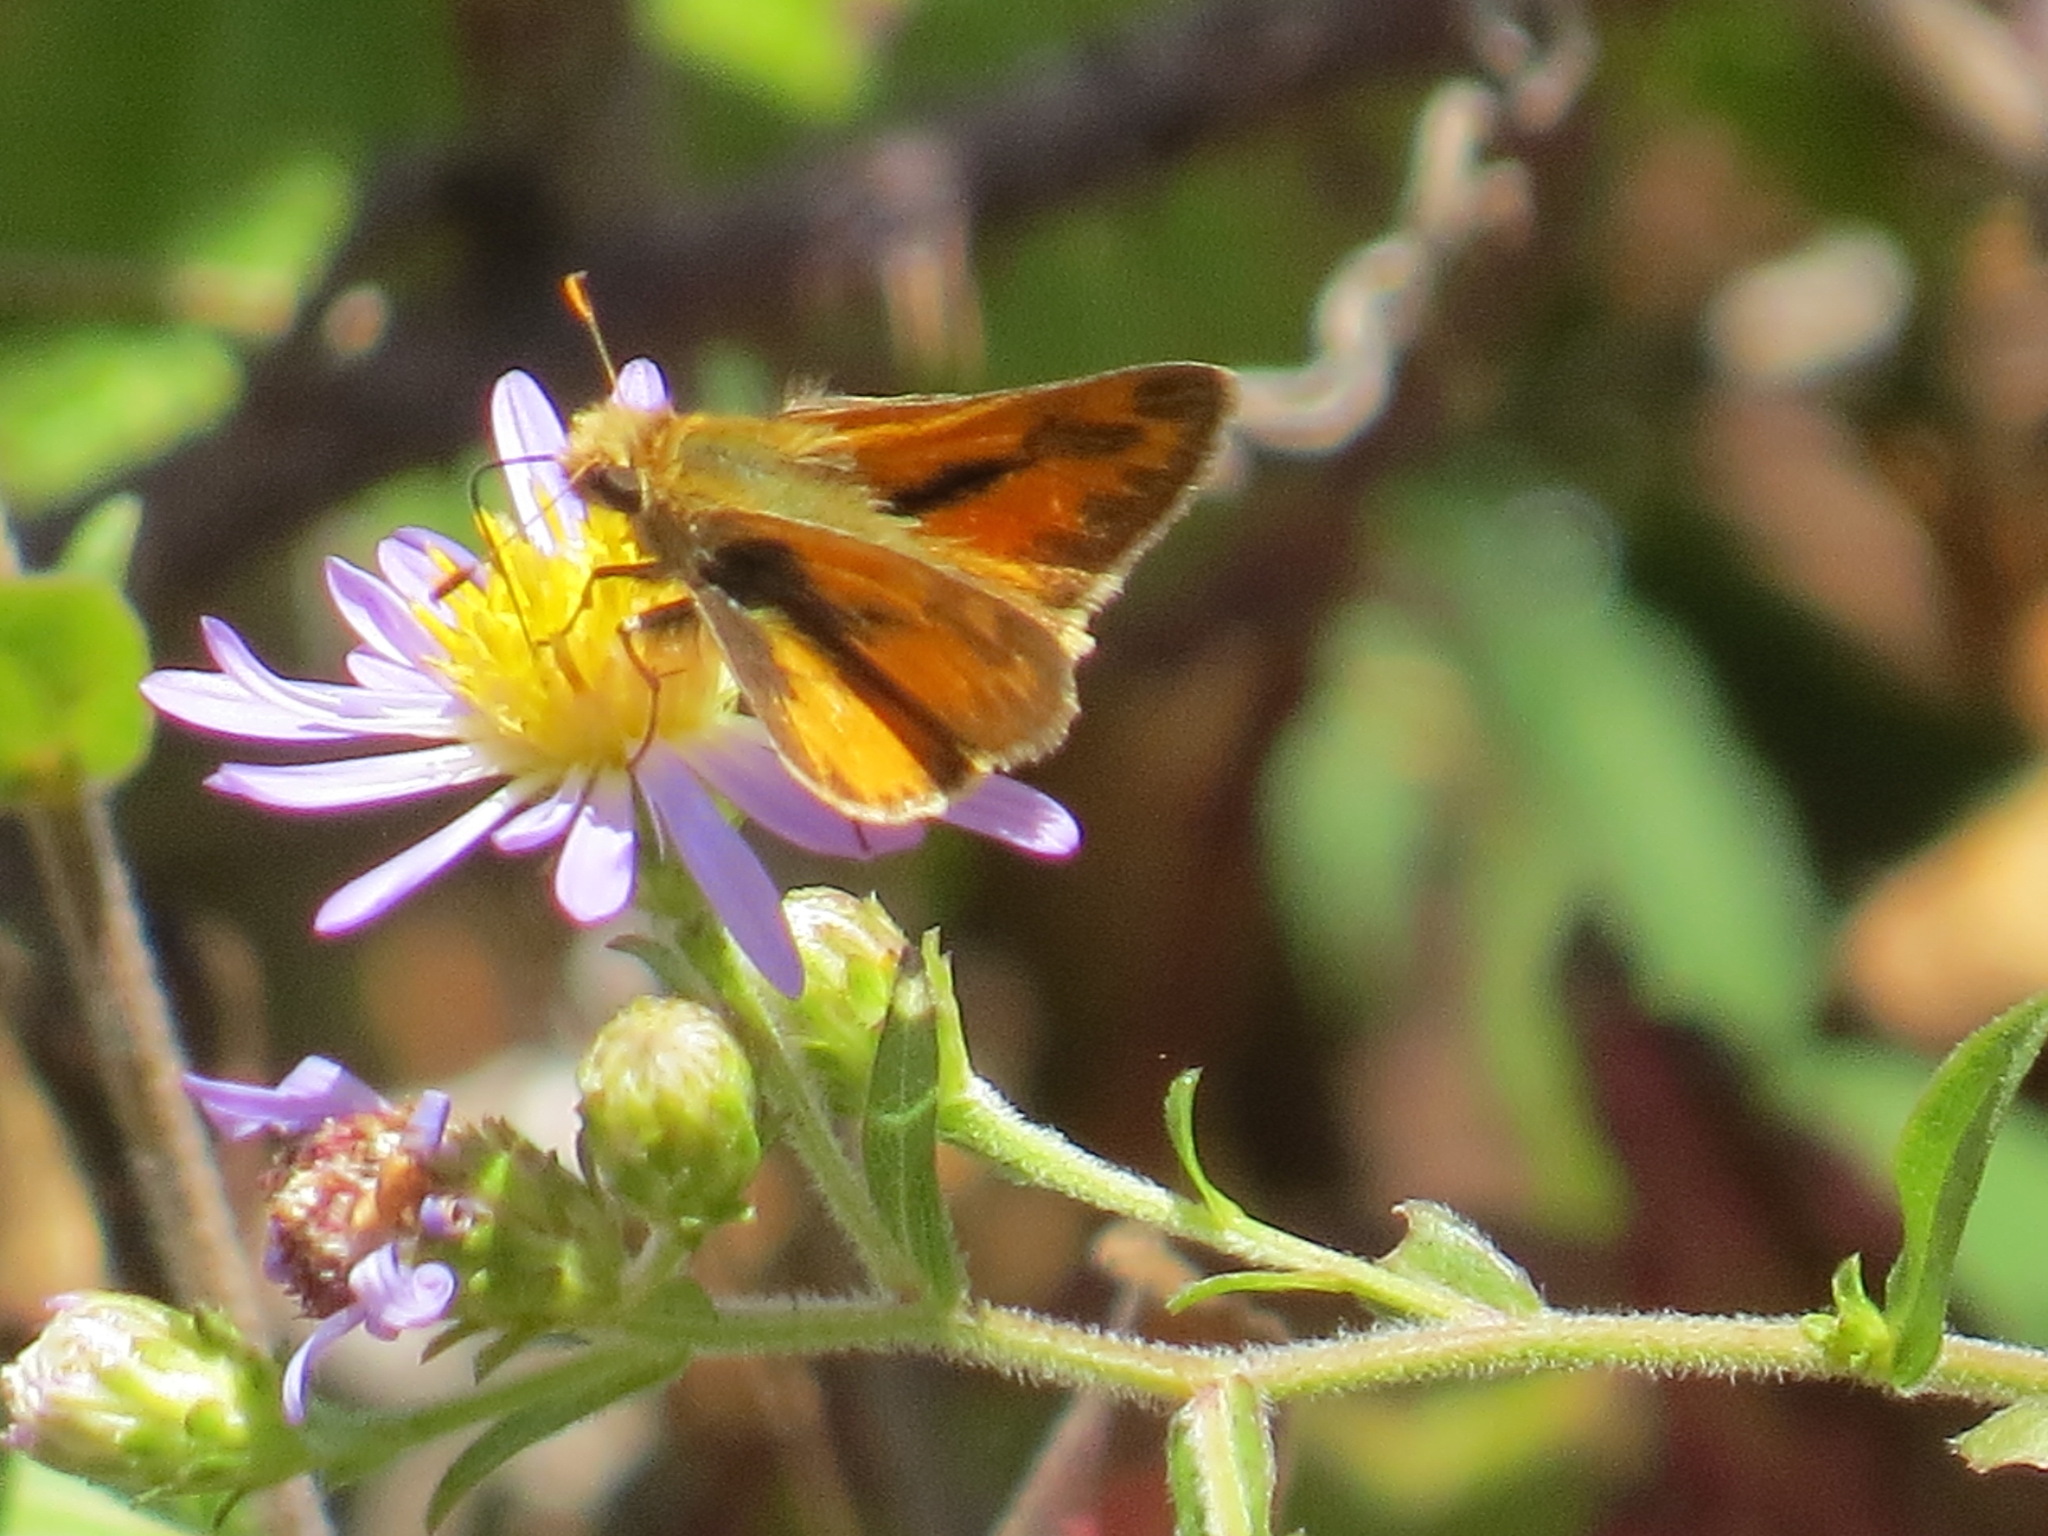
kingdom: Animalia
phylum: Arthropoda
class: Insecta
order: Lepidoptera
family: Hesperiidae
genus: Ochlodes
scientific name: Ochlodes sylvanoides
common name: Woodland skipper
